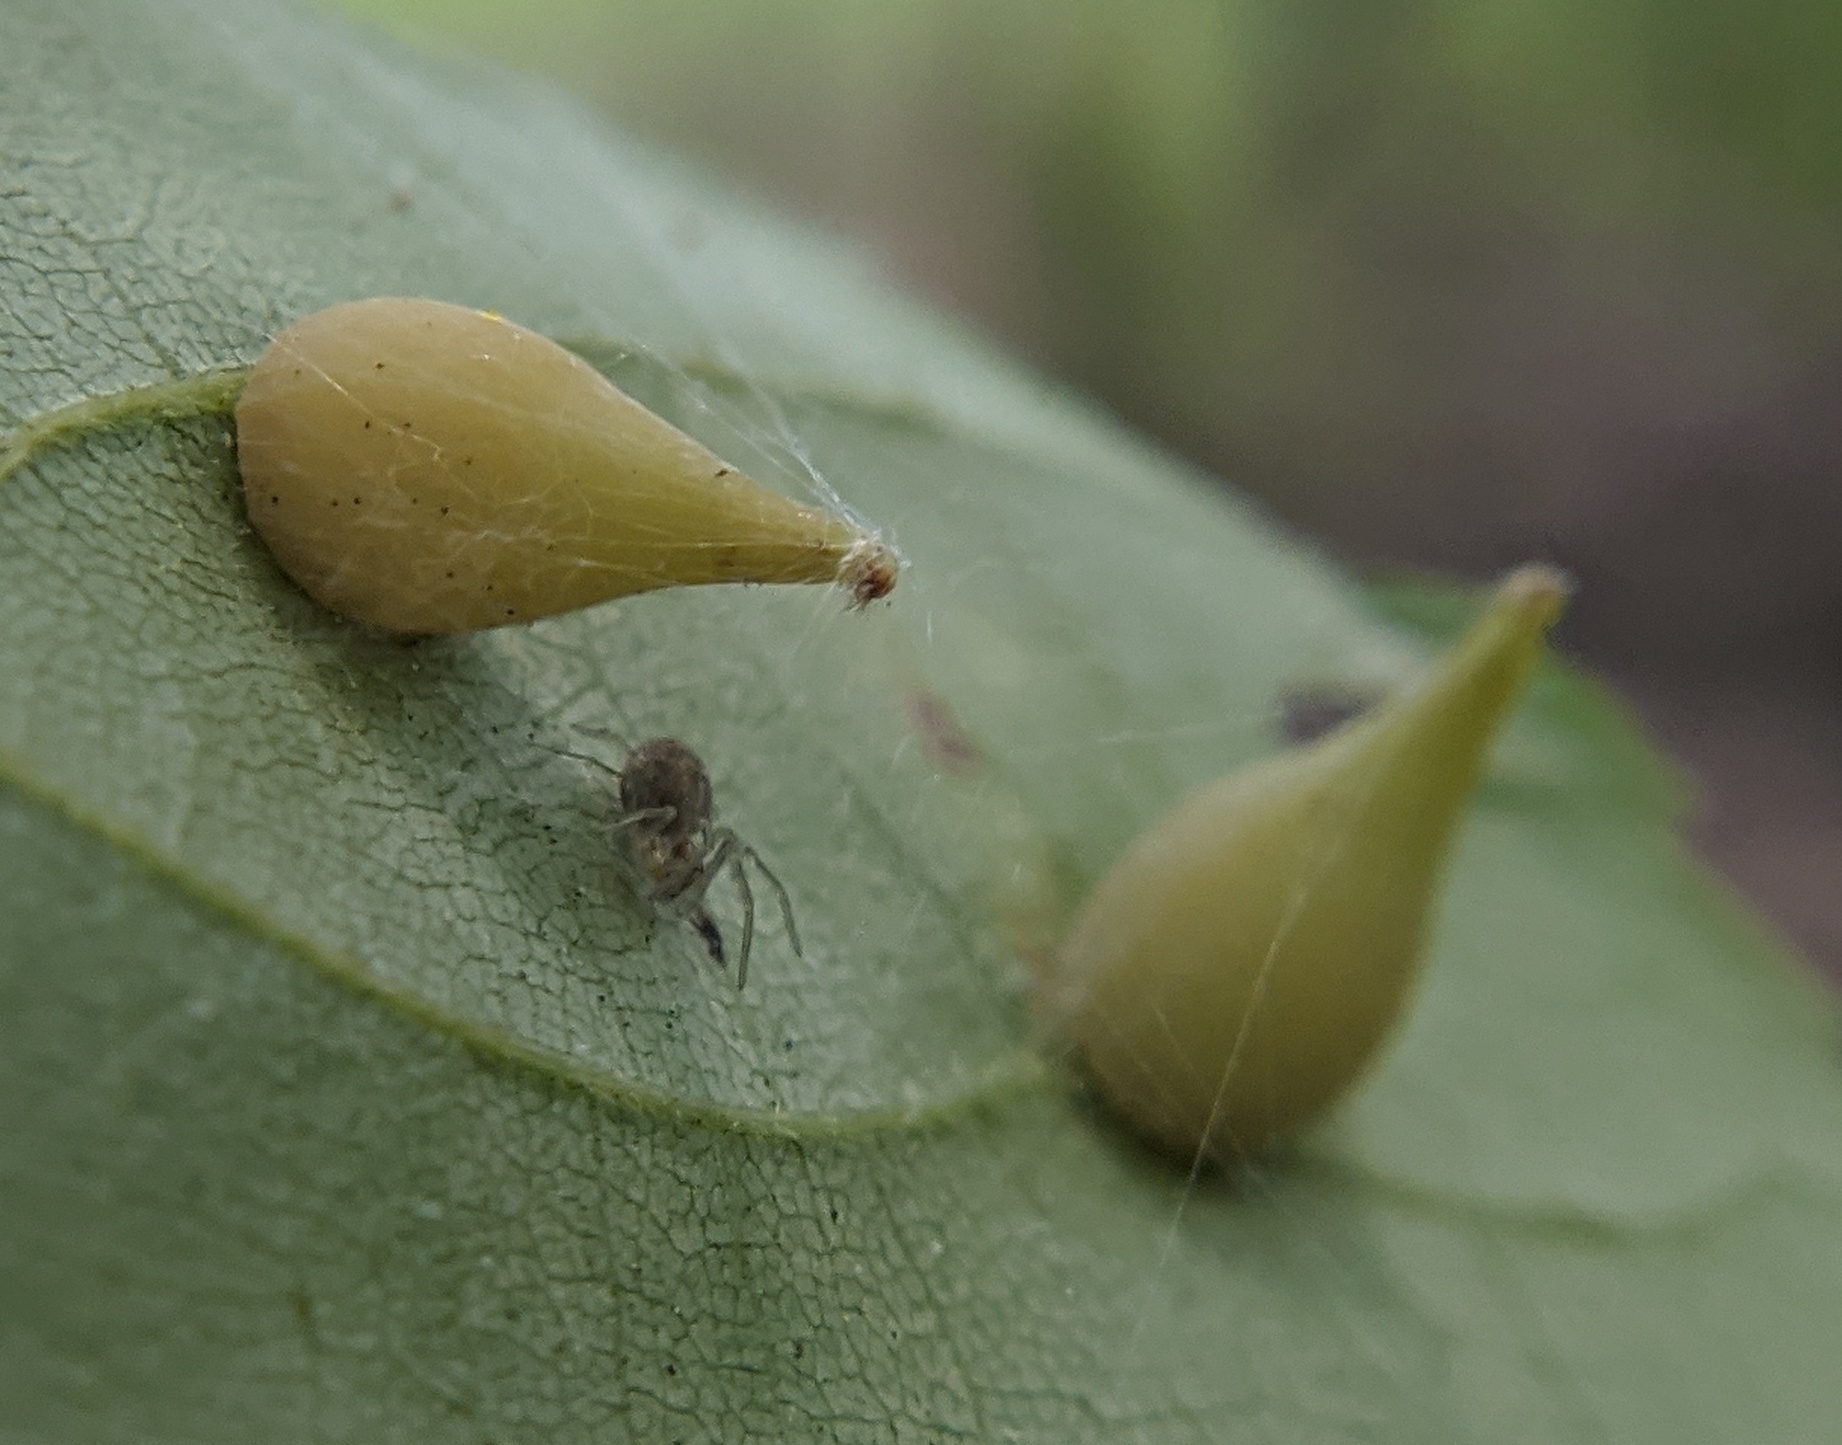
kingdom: Animalia
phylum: Arthropoda
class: Insecta
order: Diptera
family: Cecidomyiidae
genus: Caryomyia
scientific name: Caryomyia caryaecola
